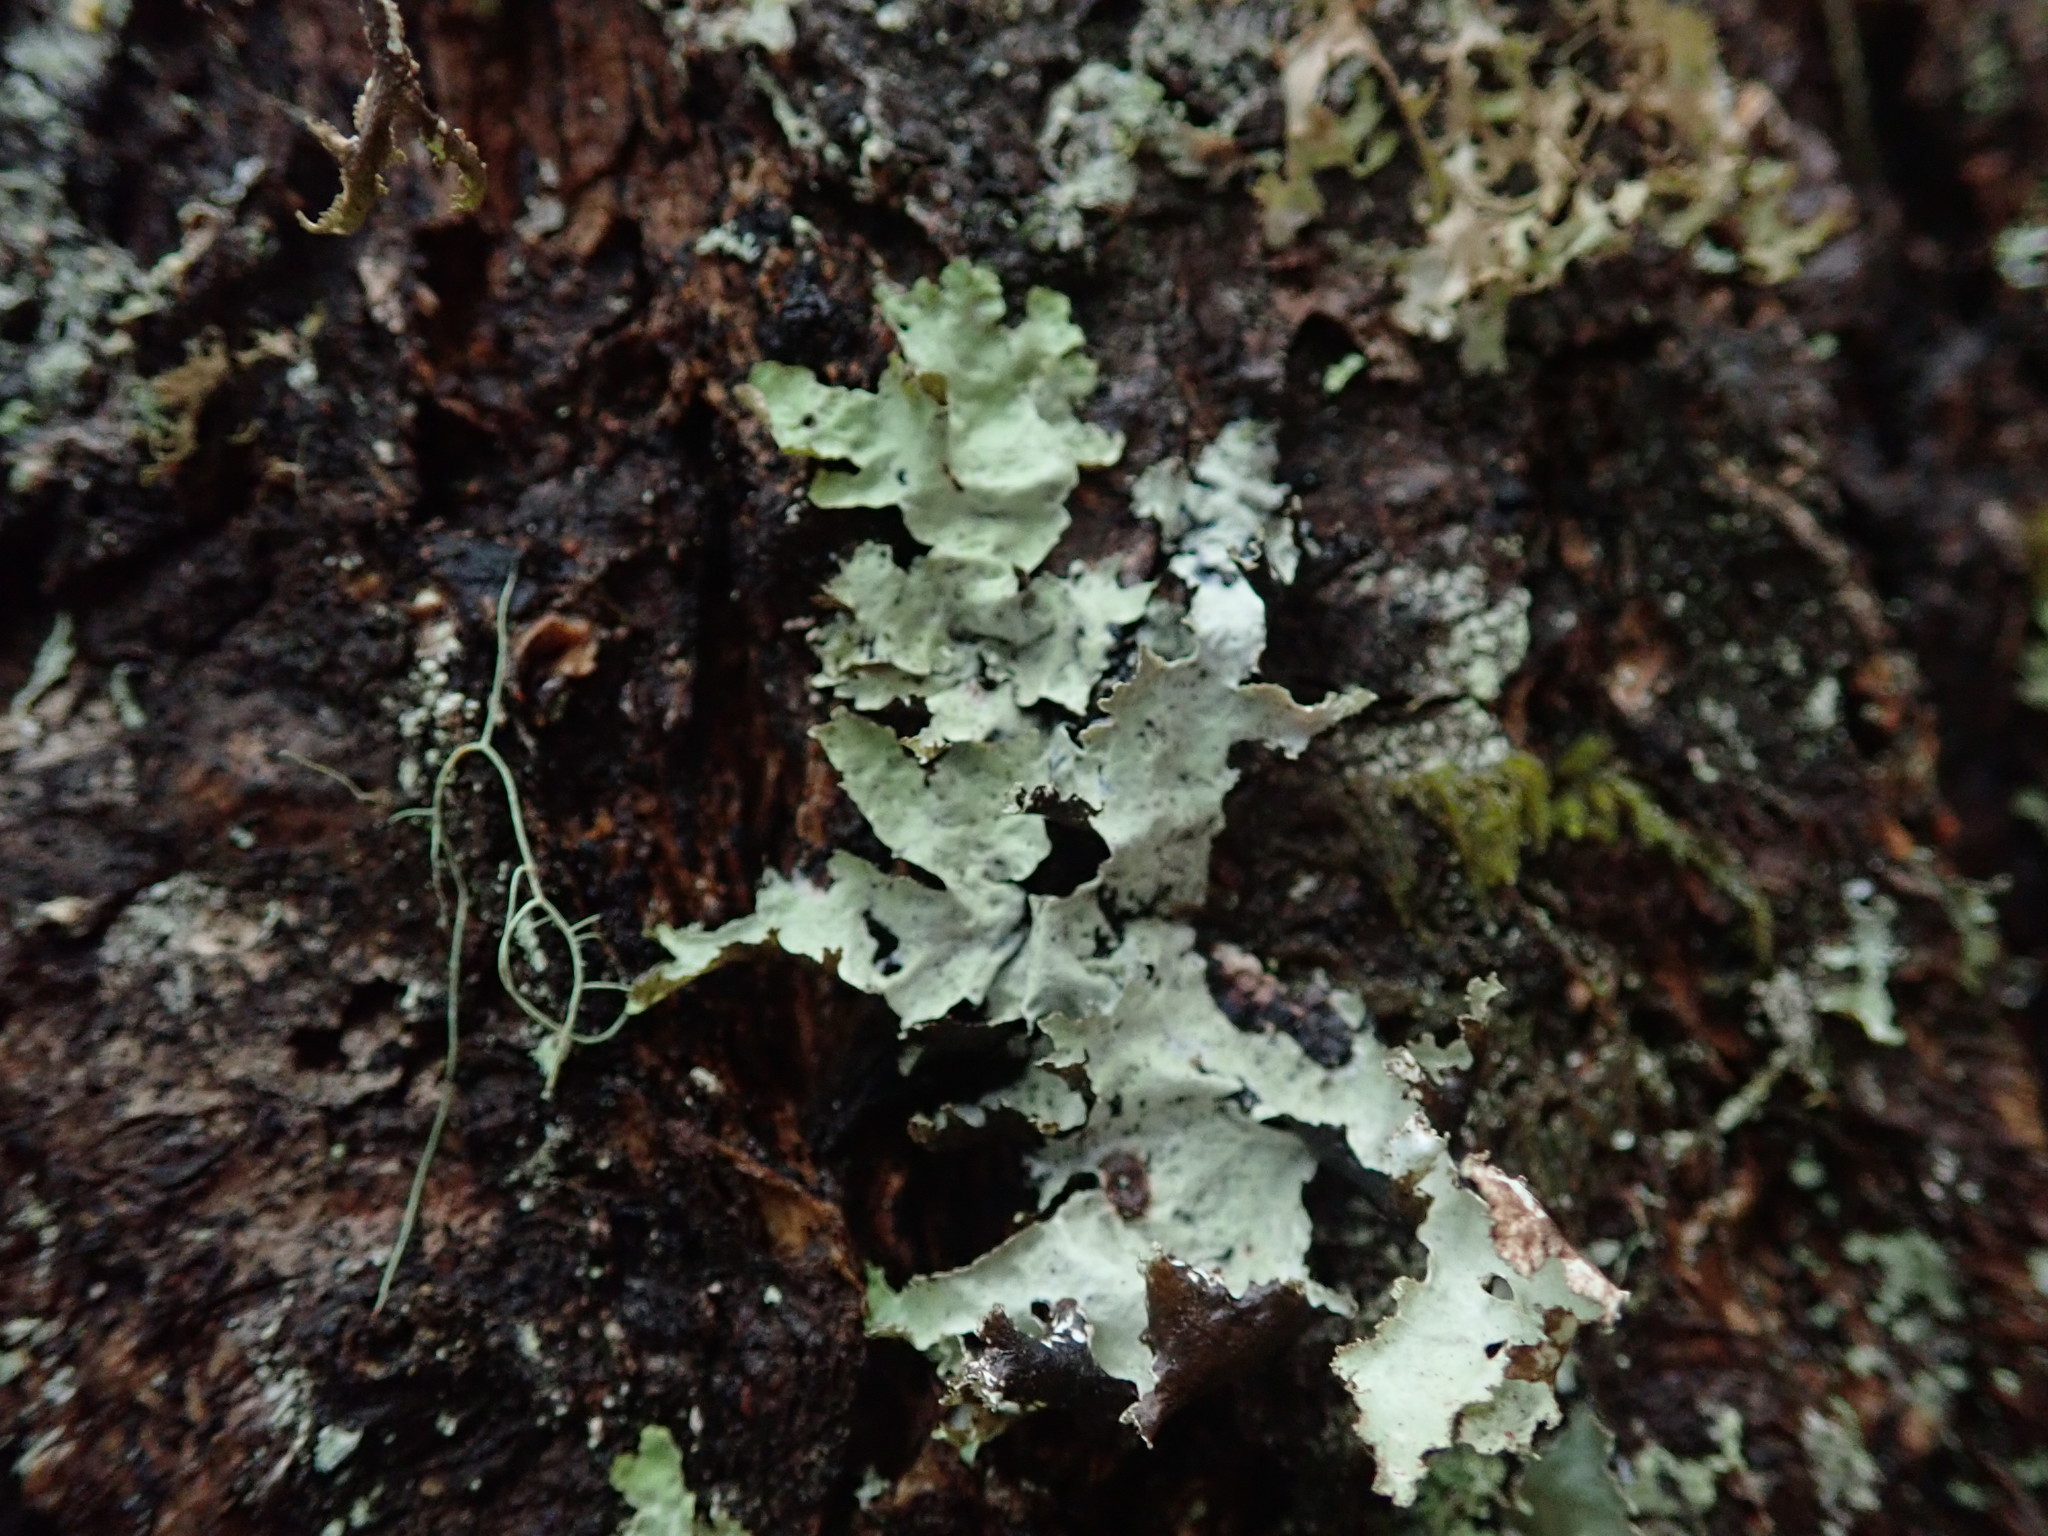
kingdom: Fungi
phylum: Ascomycota
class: Lecanoromycetes
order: Lecanorales
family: Parmeliaceae
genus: Platismatia
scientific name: Platismatia glauca
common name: Varied rag lichen
